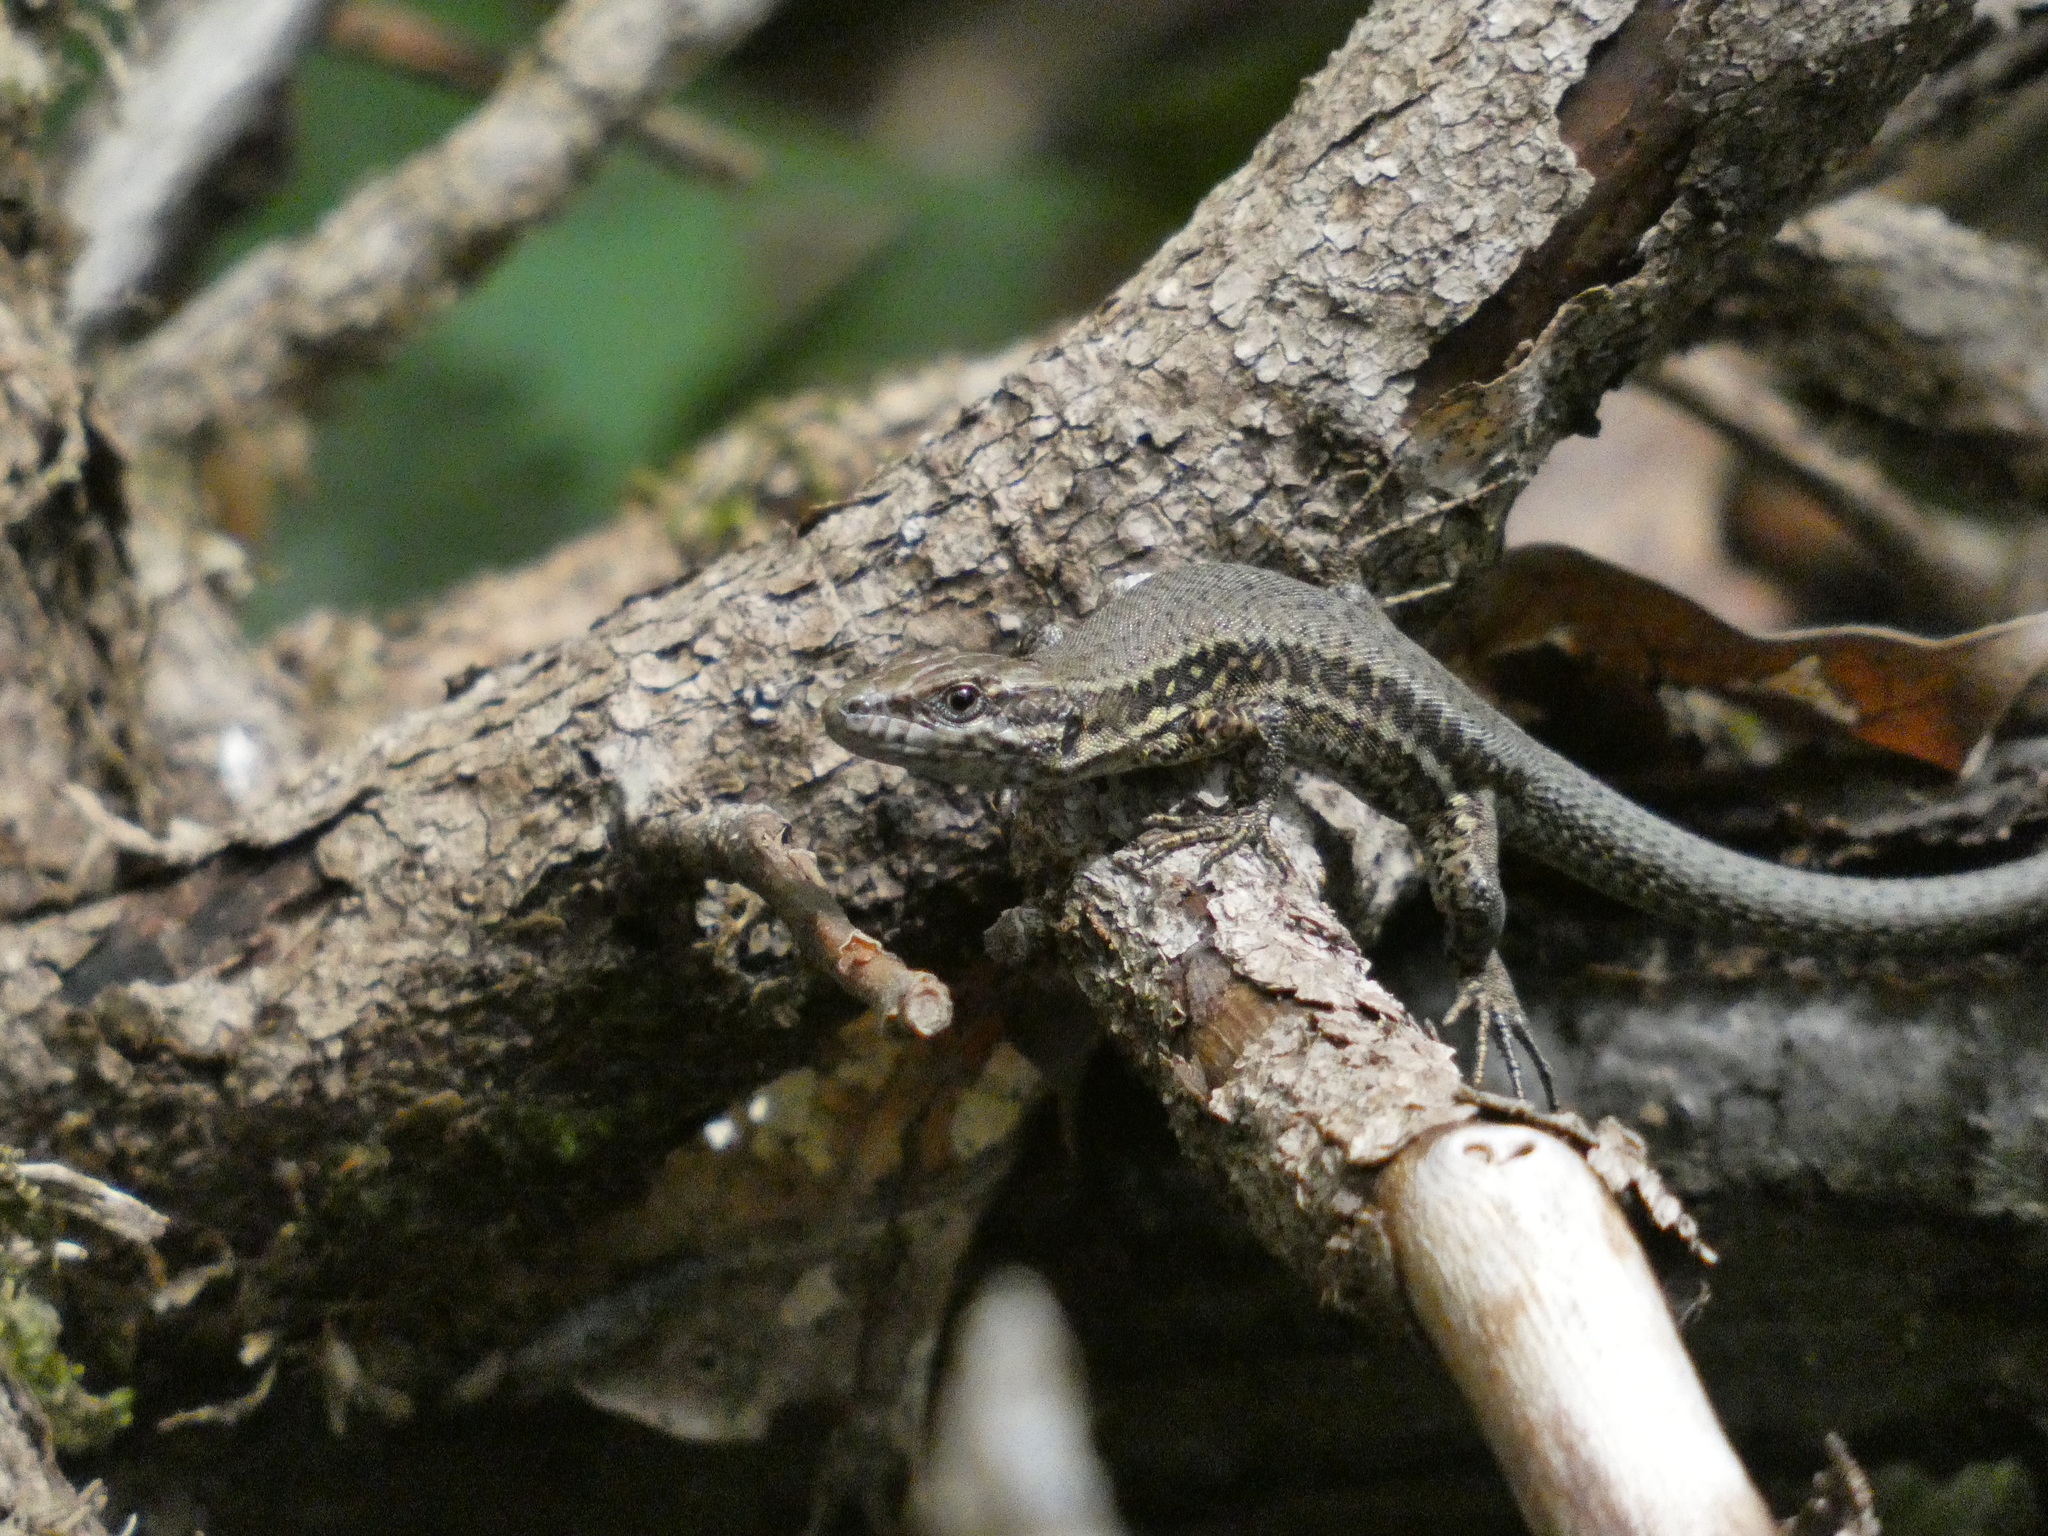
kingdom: Animalia
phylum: Chordata
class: Squamata
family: Lacertidae
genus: Podarcis
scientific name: Podarcis muralis
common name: Common wall lizard
